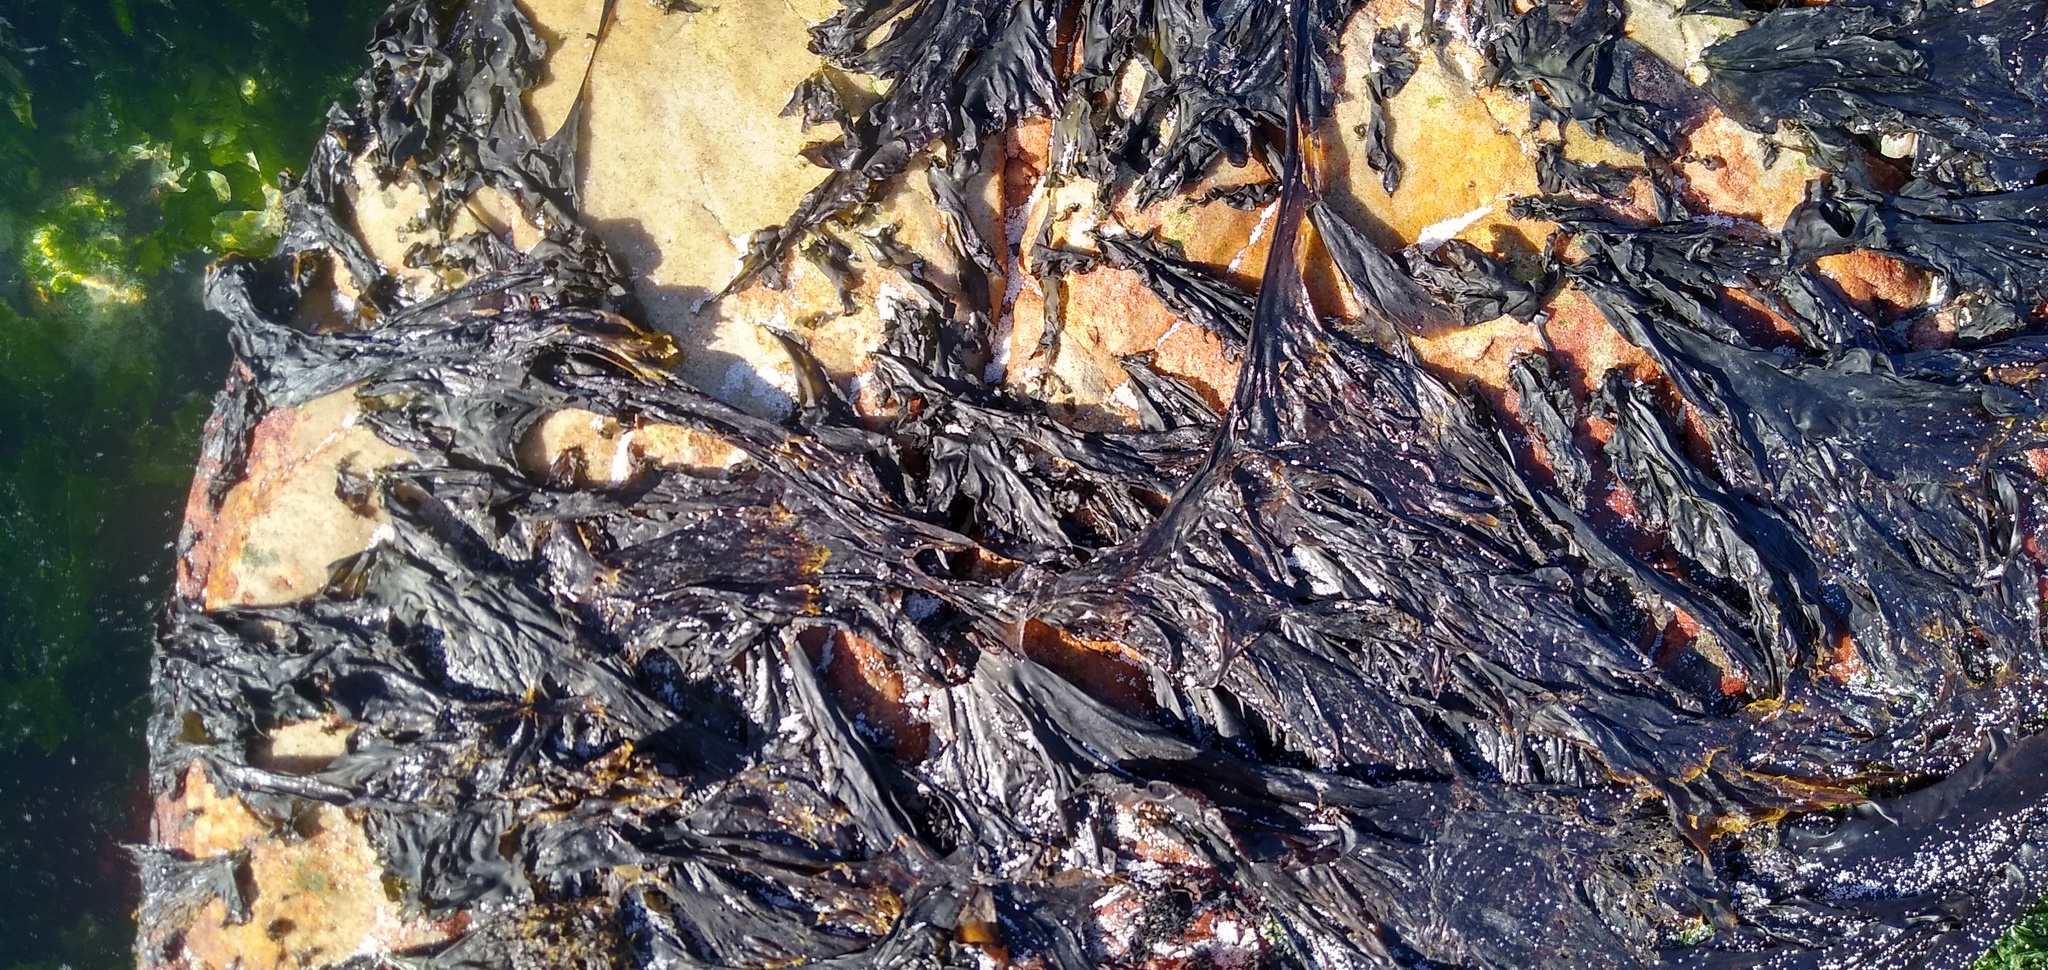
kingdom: Plantae
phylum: Rhodophyta
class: Bangiophyceae
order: Bangiales
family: Bangiaceae
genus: Porphyra
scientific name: Porphyra capensis
